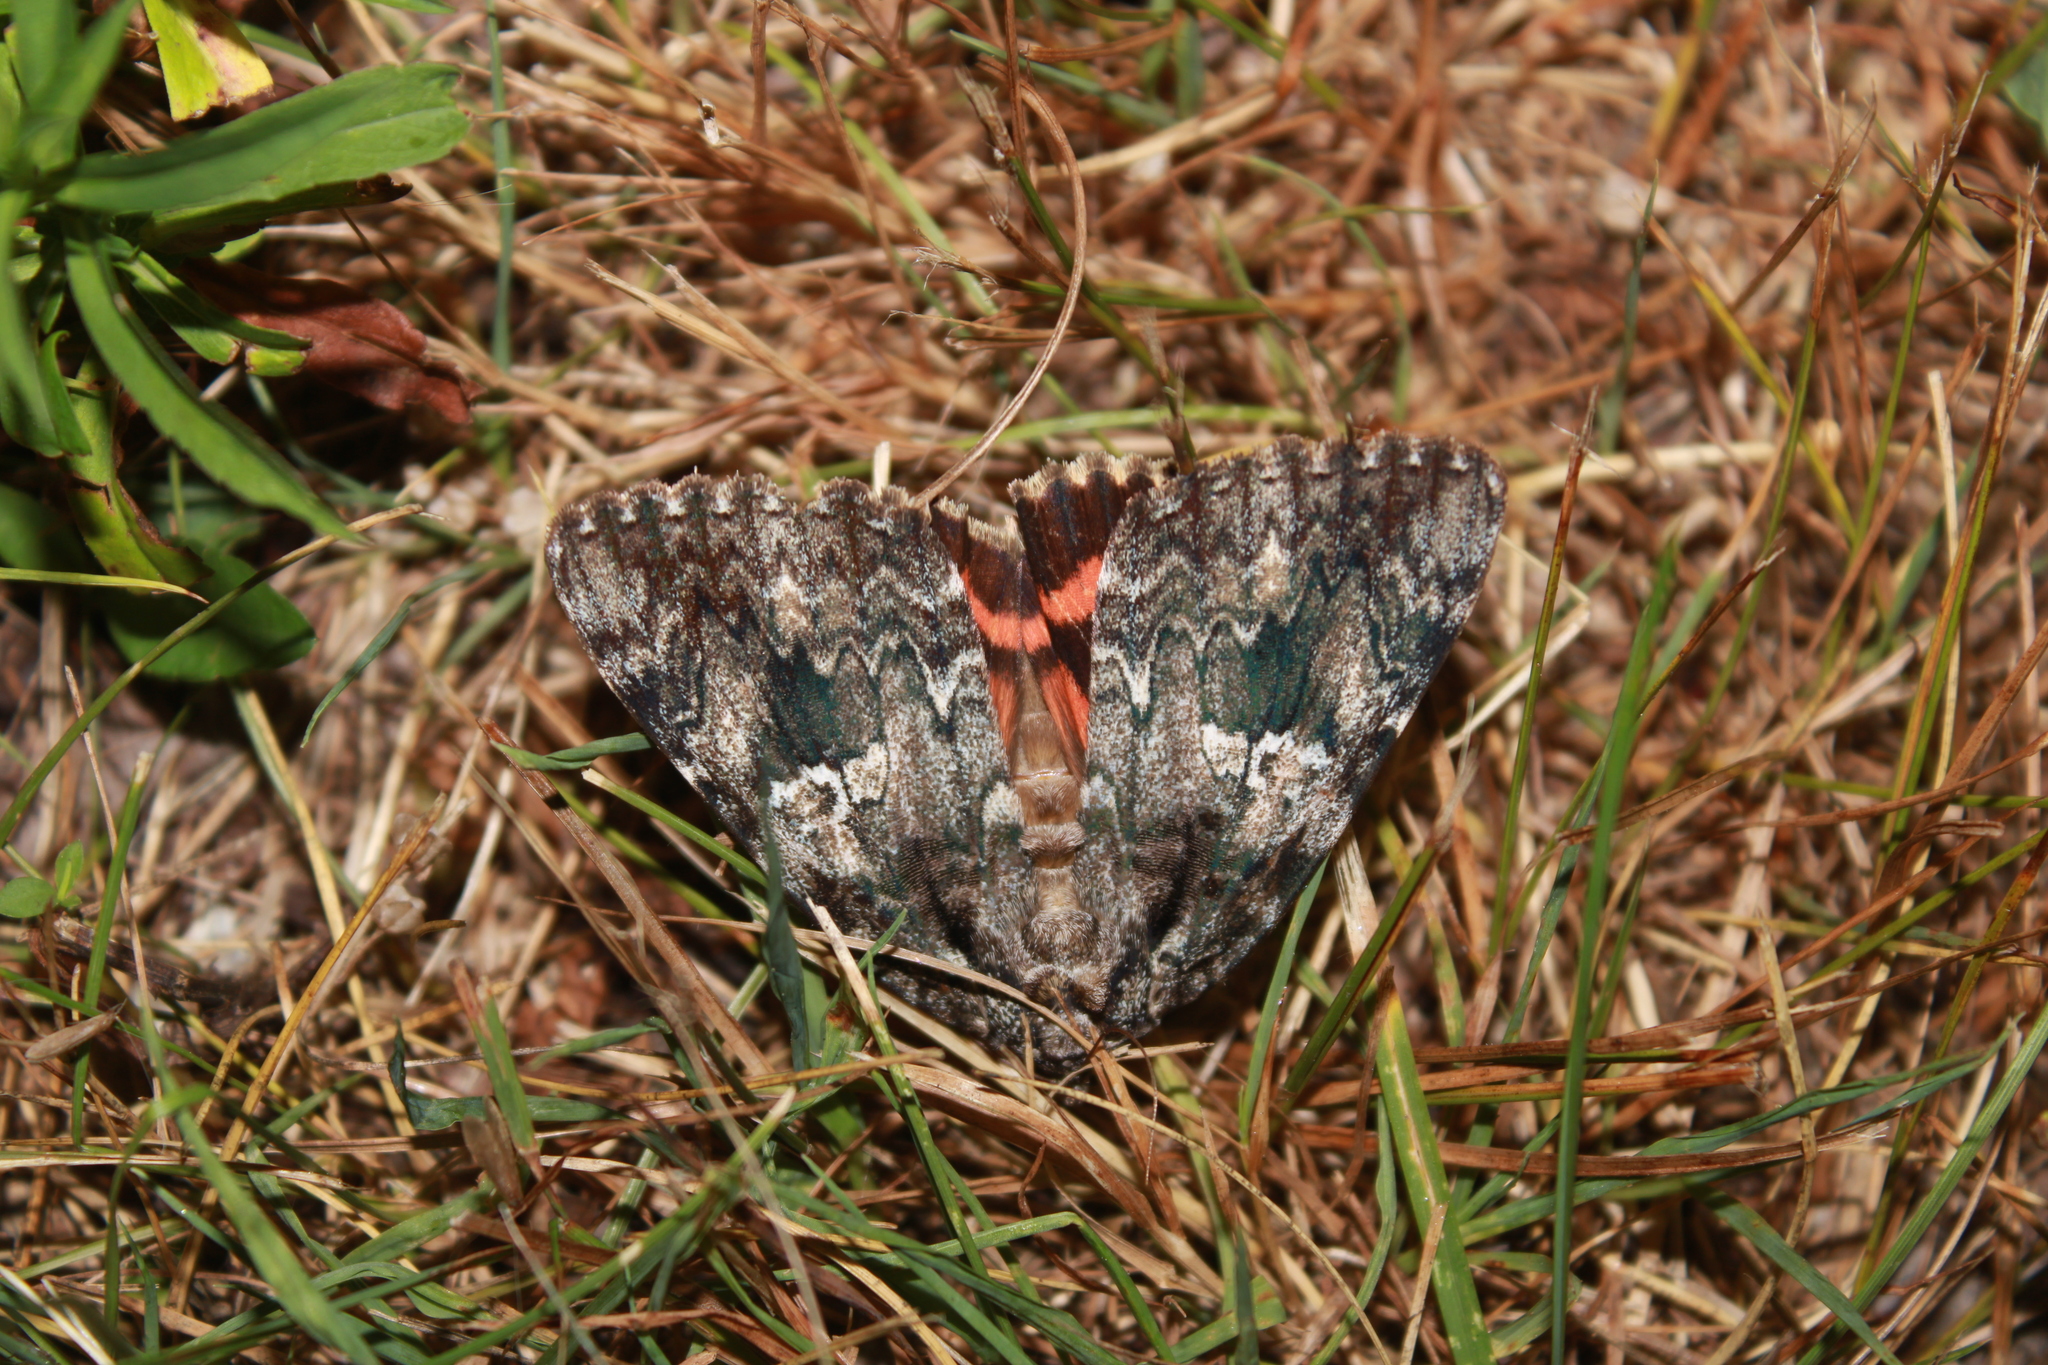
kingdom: Animalia
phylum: Arthropoda
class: Insecta
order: Lepidoptera
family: Erebidae
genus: Catocala
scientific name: Catocala ilia
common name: Ilia underwing
